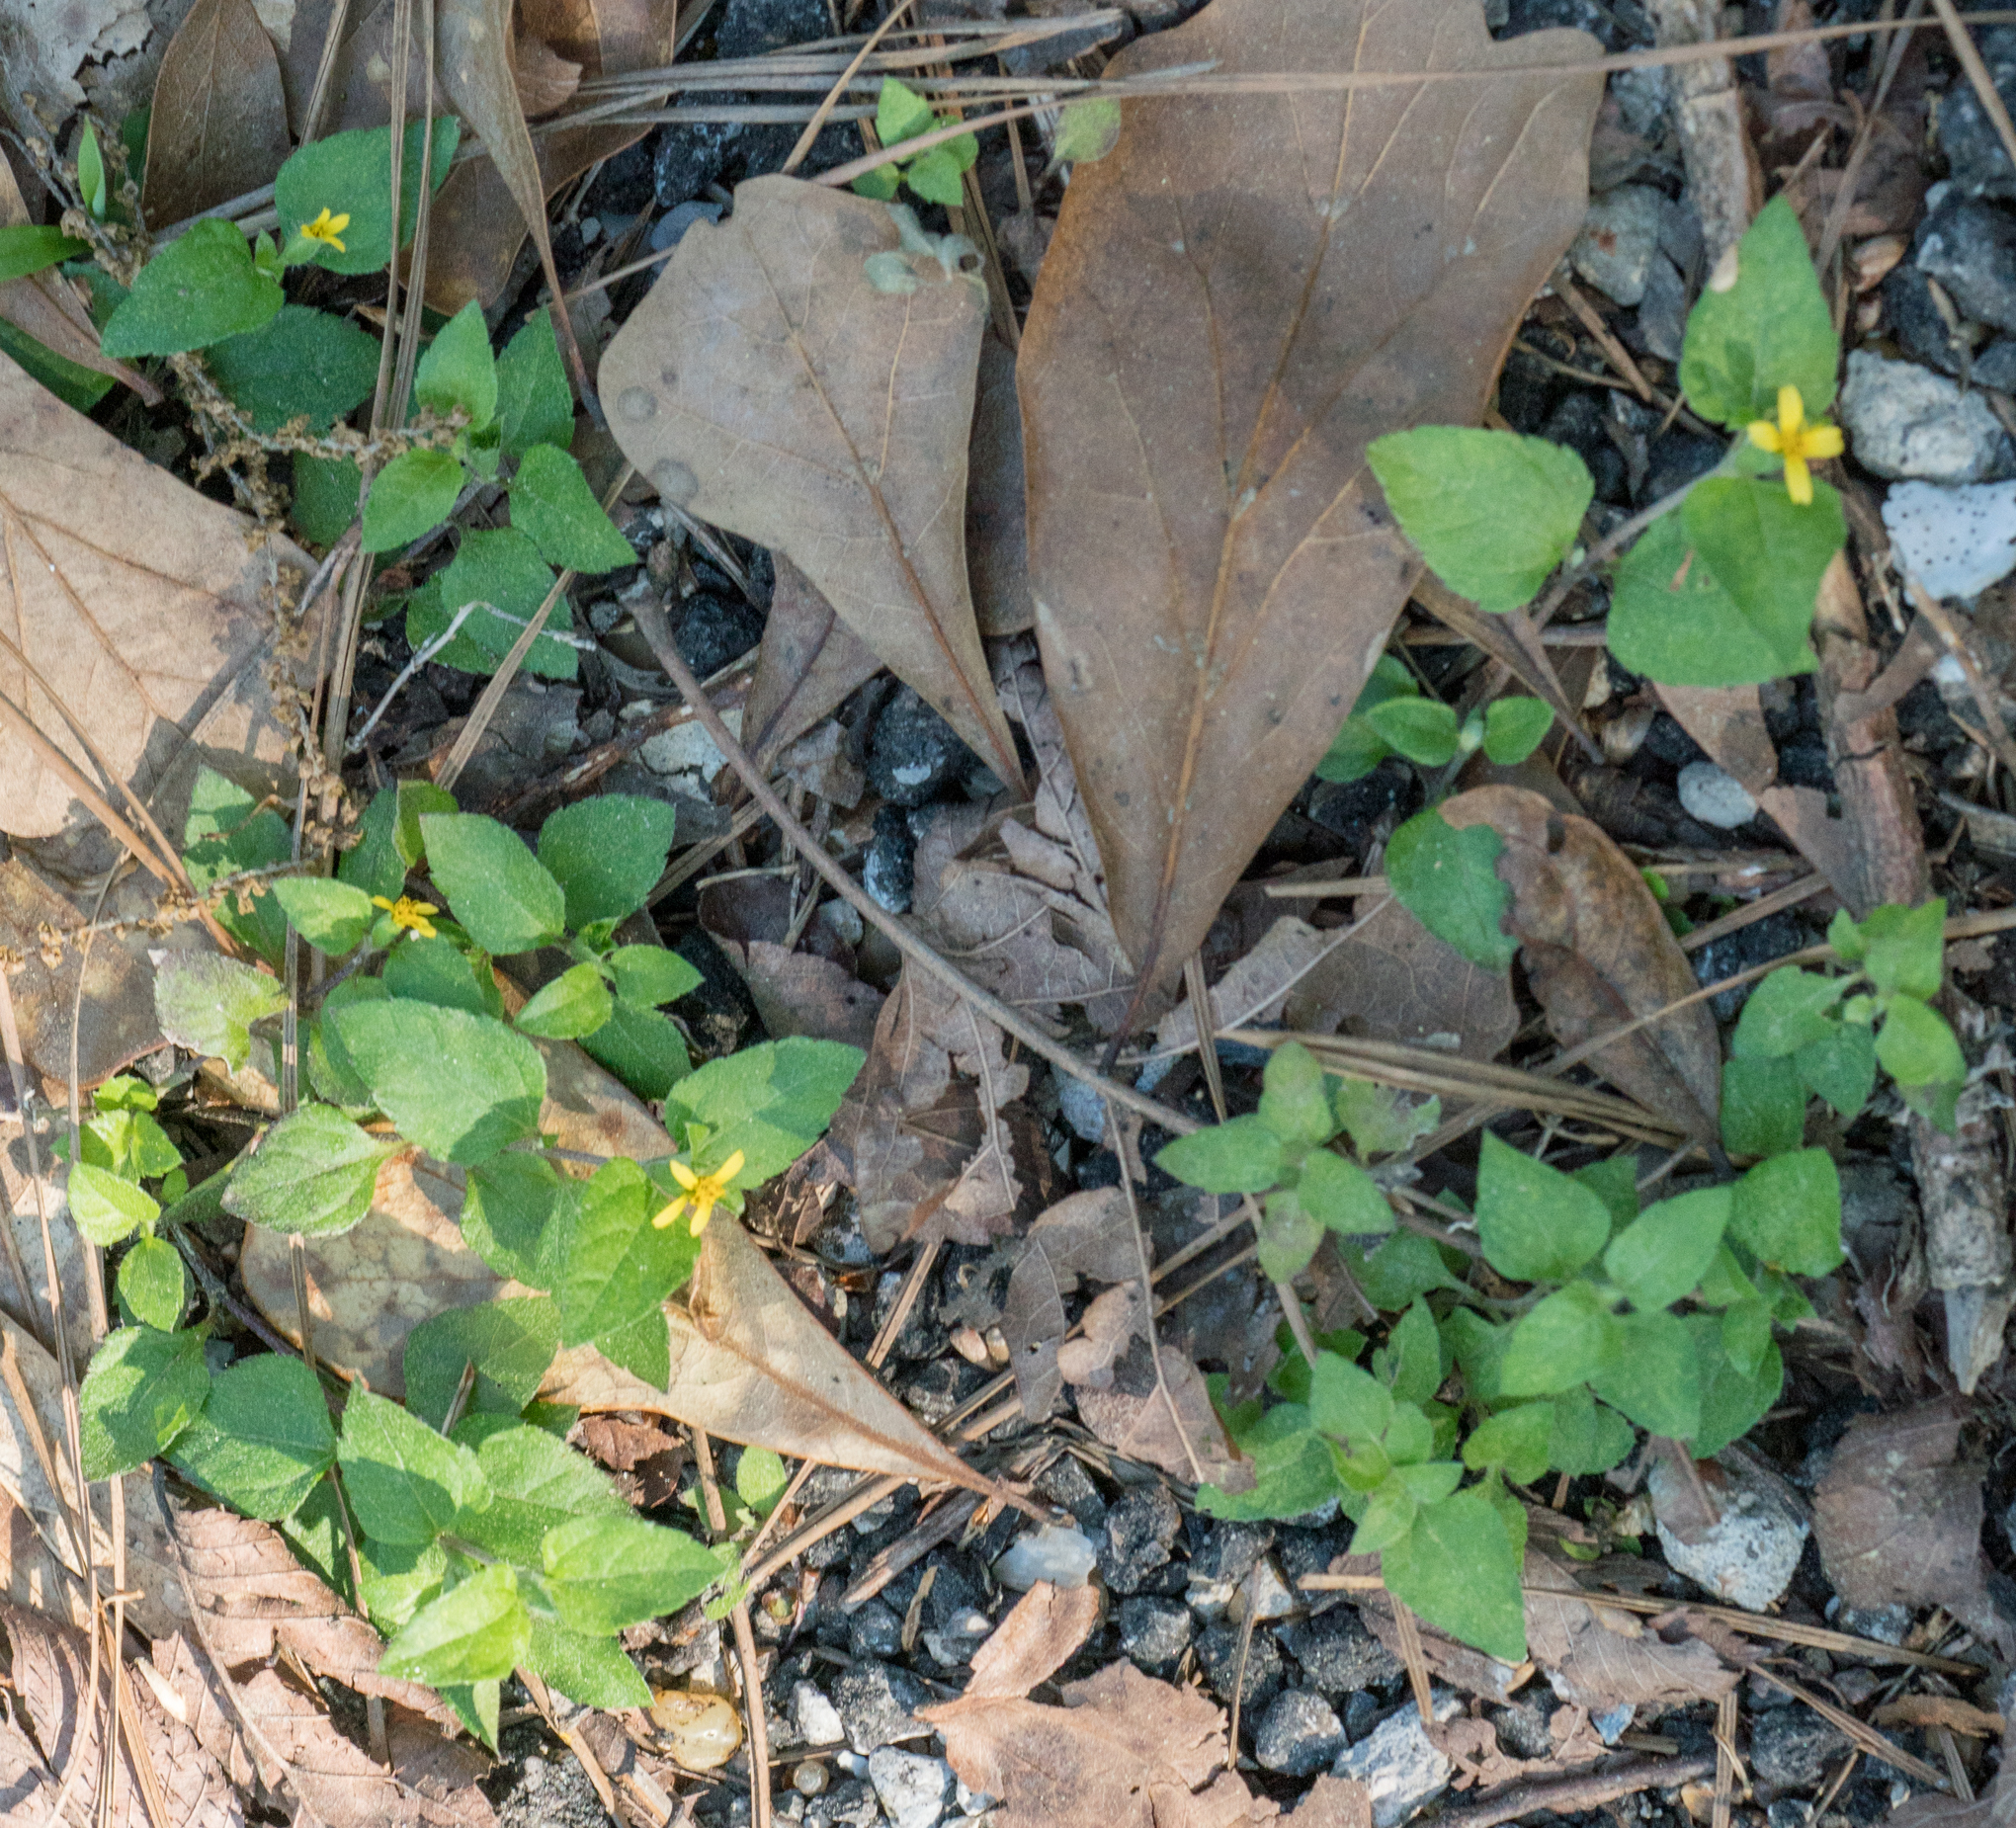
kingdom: Plantae
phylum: Tracheophyta
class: Magnoliopsida
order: Asterales
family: Asteraceae
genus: Calyptocarpus
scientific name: Calyptocarpus vialis
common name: Straggler daisy
